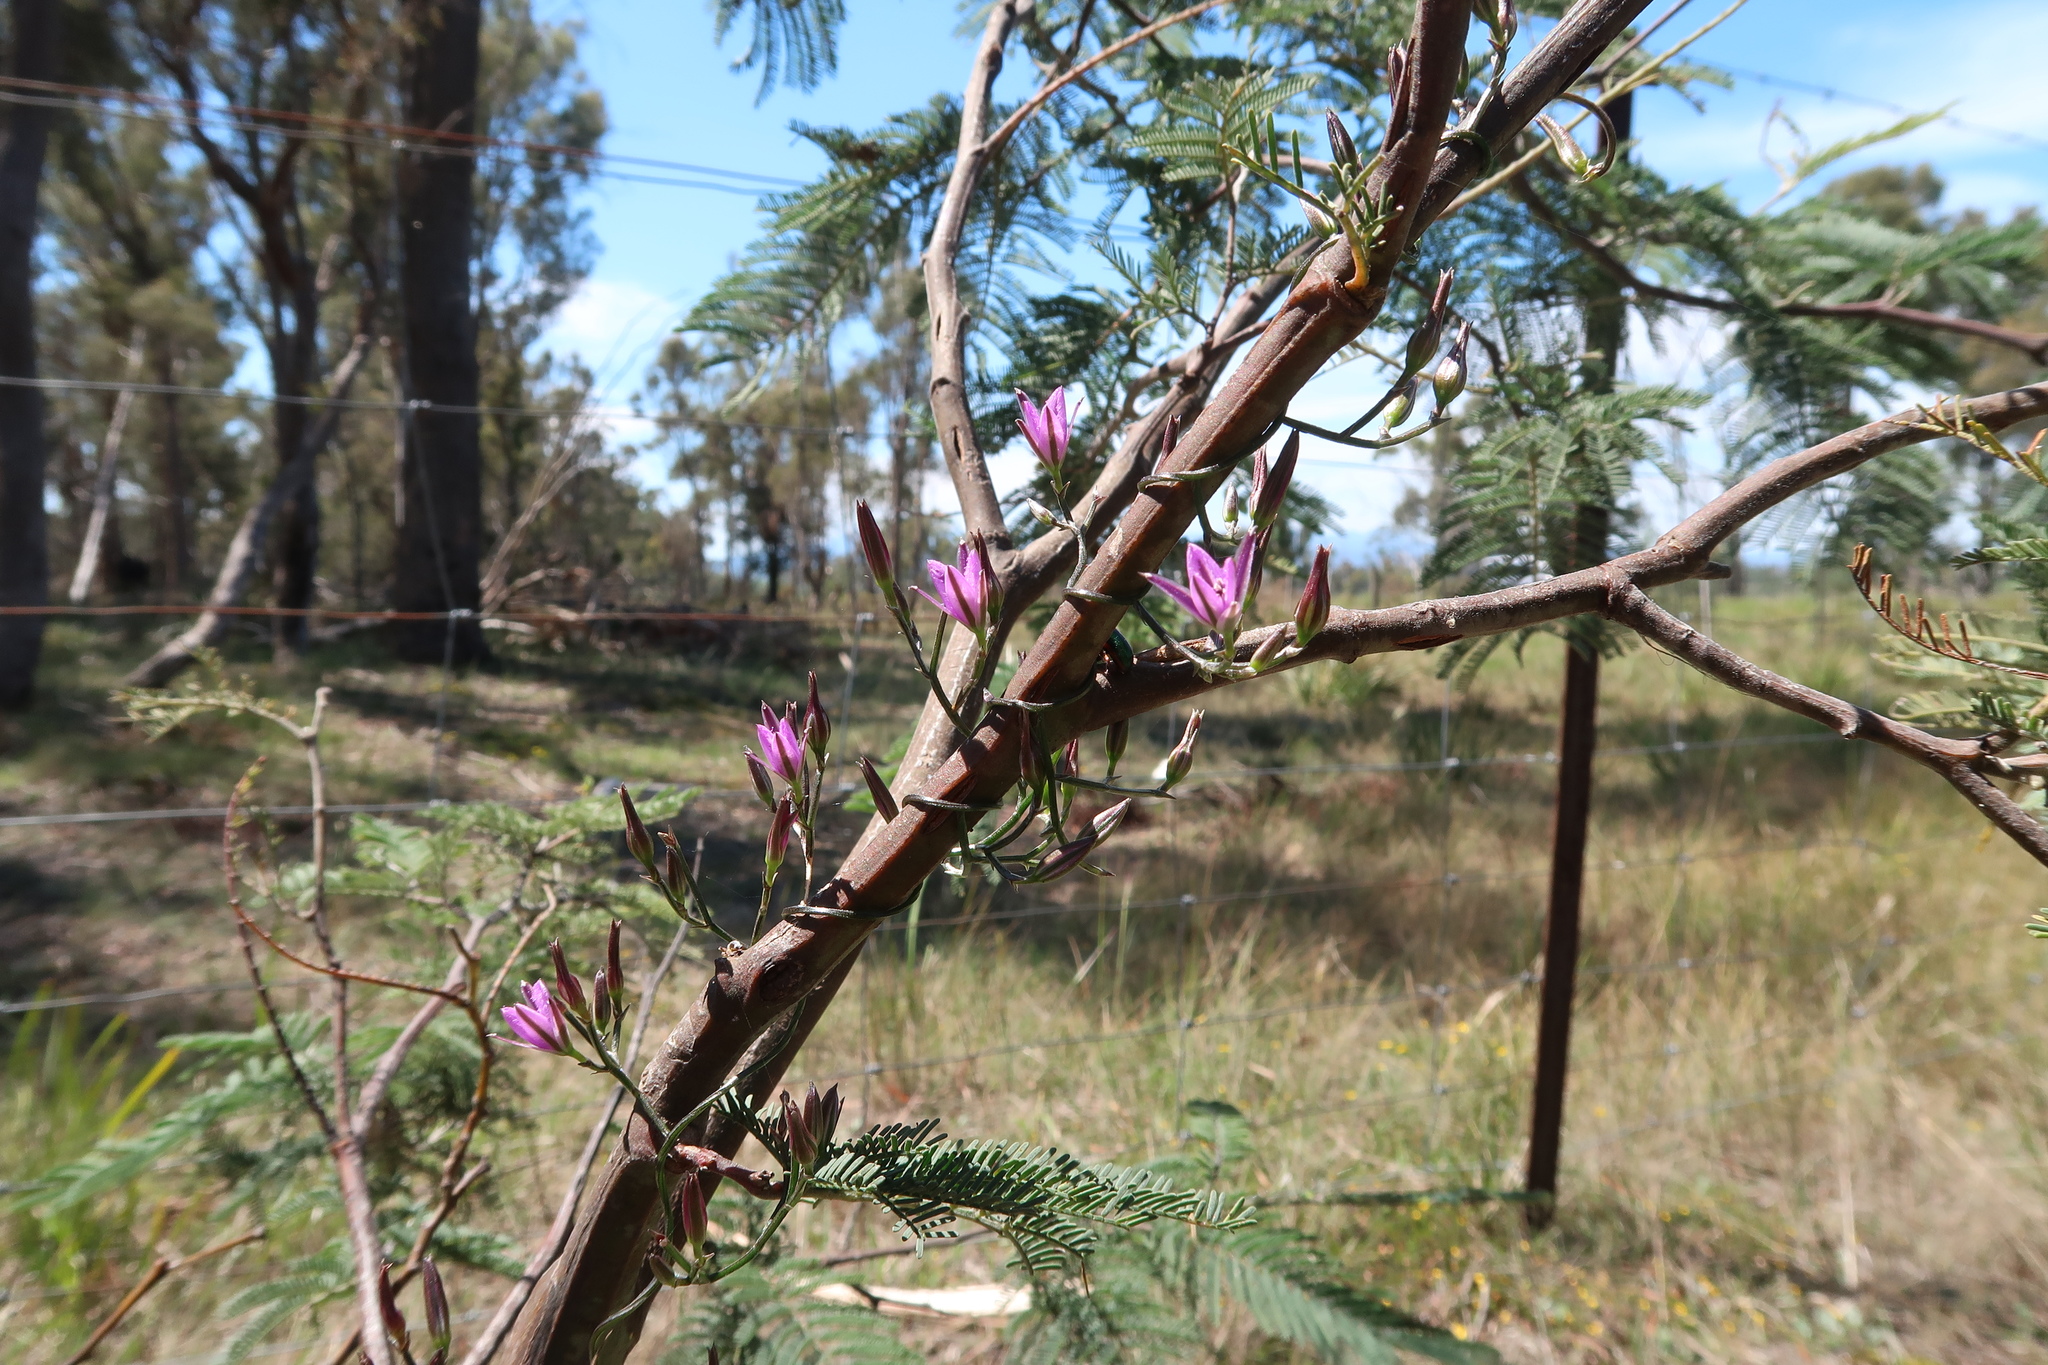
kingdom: Plantae
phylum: Tracheophyta
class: Liliopsida
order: Asparagales
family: Asparagaceae
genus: Thysanotus
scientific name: Thysanotus patersonii
